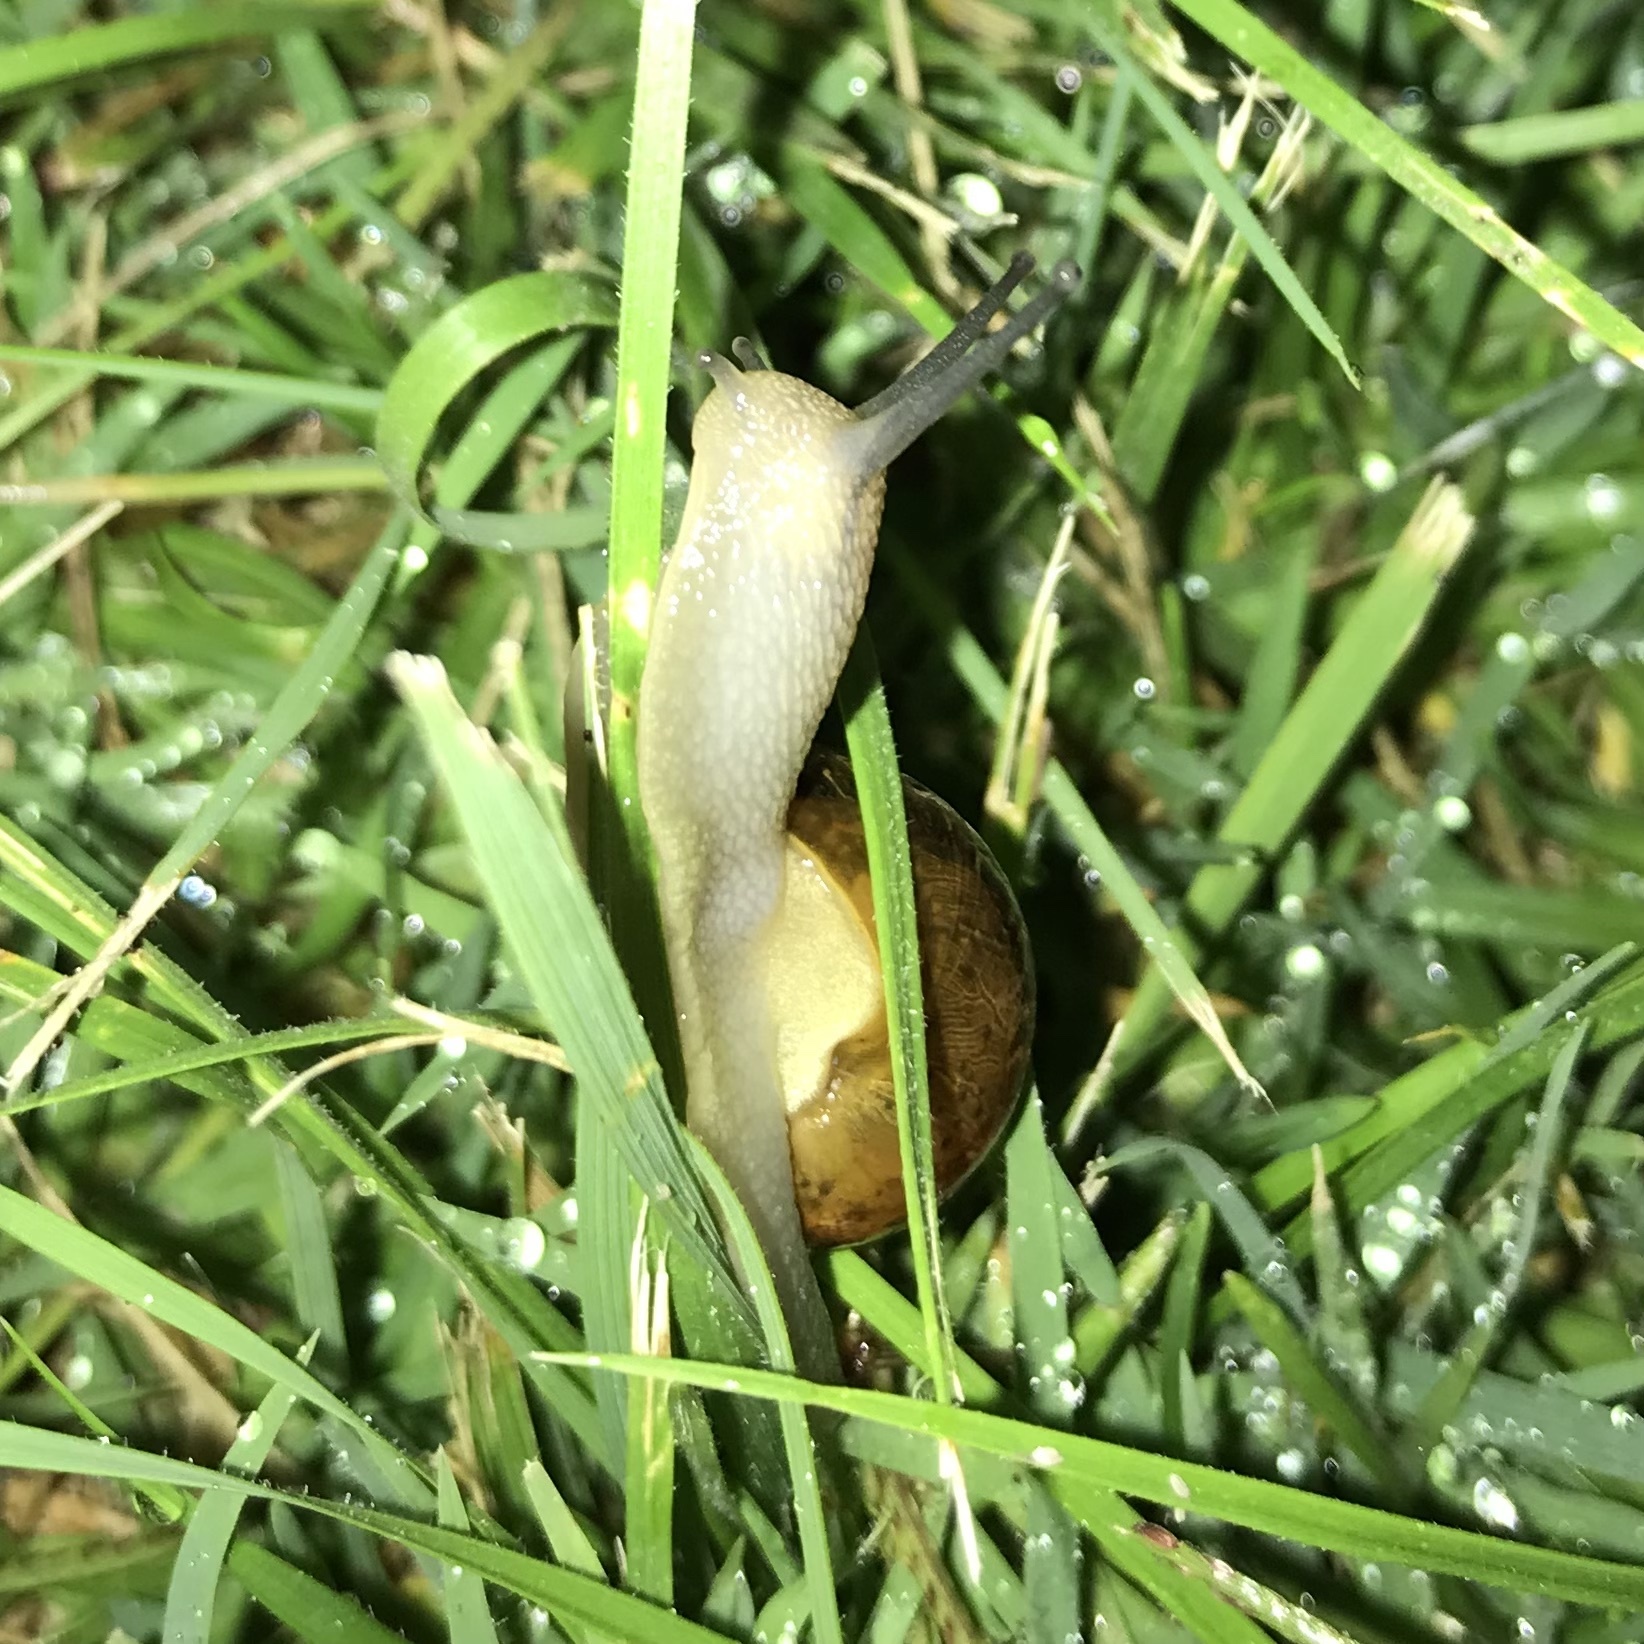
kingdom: Animalia
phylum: Mollusca
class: Gastropoda
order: Stylommatophora
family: Helicidae
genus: Cornu
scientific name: Cornu aspersum
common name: Brown garden snail
